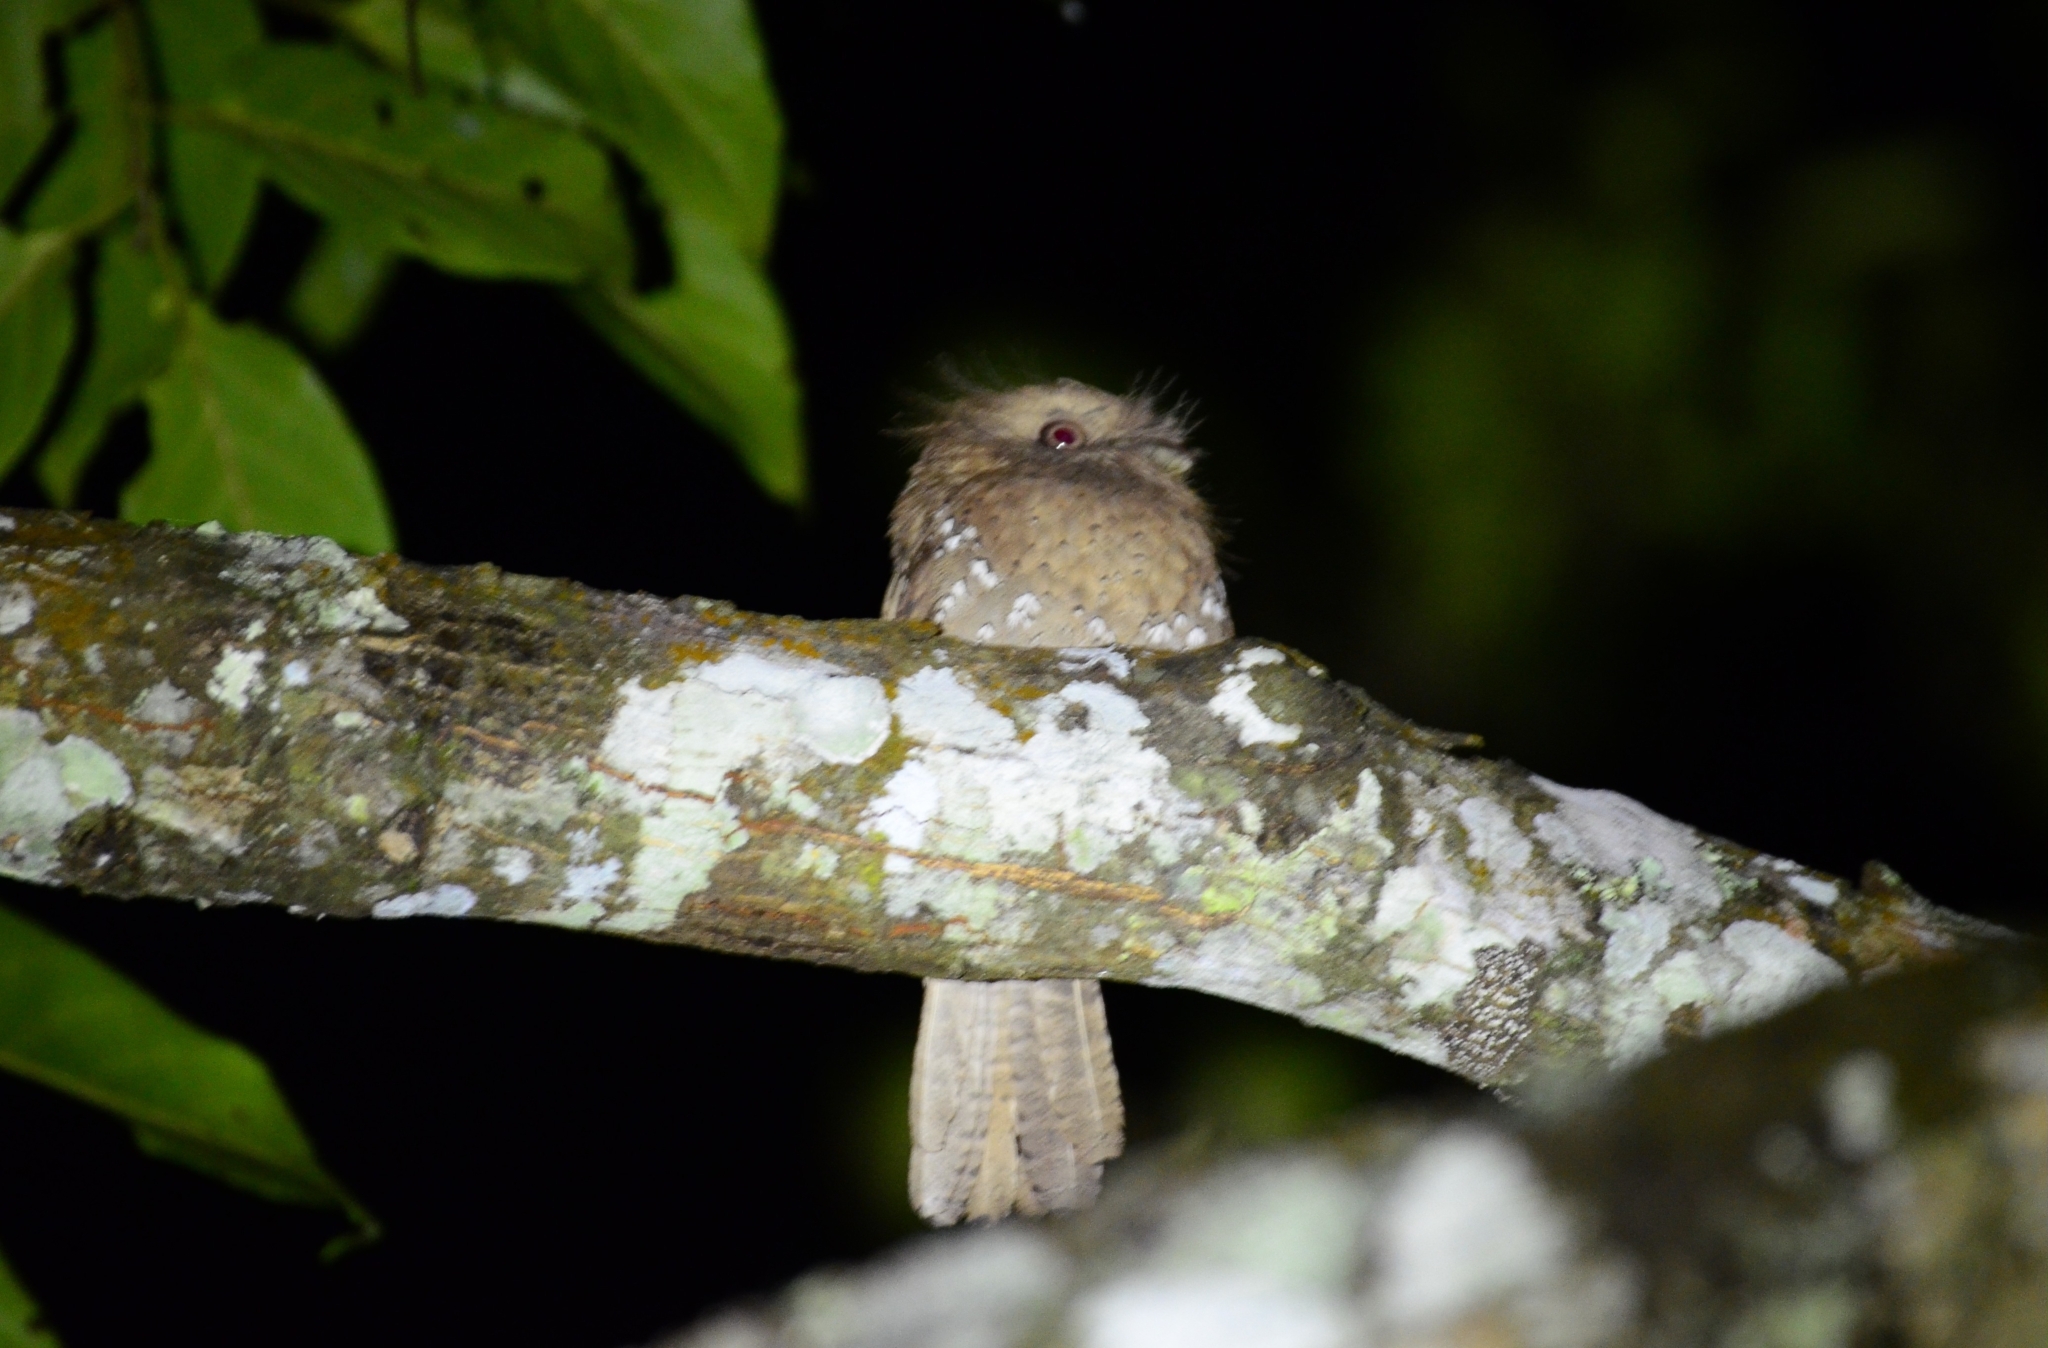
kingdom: Animalia
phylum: Chordata
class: Aves
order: Caprimulgiformes
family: Podargidae
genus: Batrachostomus
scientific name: Batrachostomus moniliger
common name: Sri lanka frogmouth
